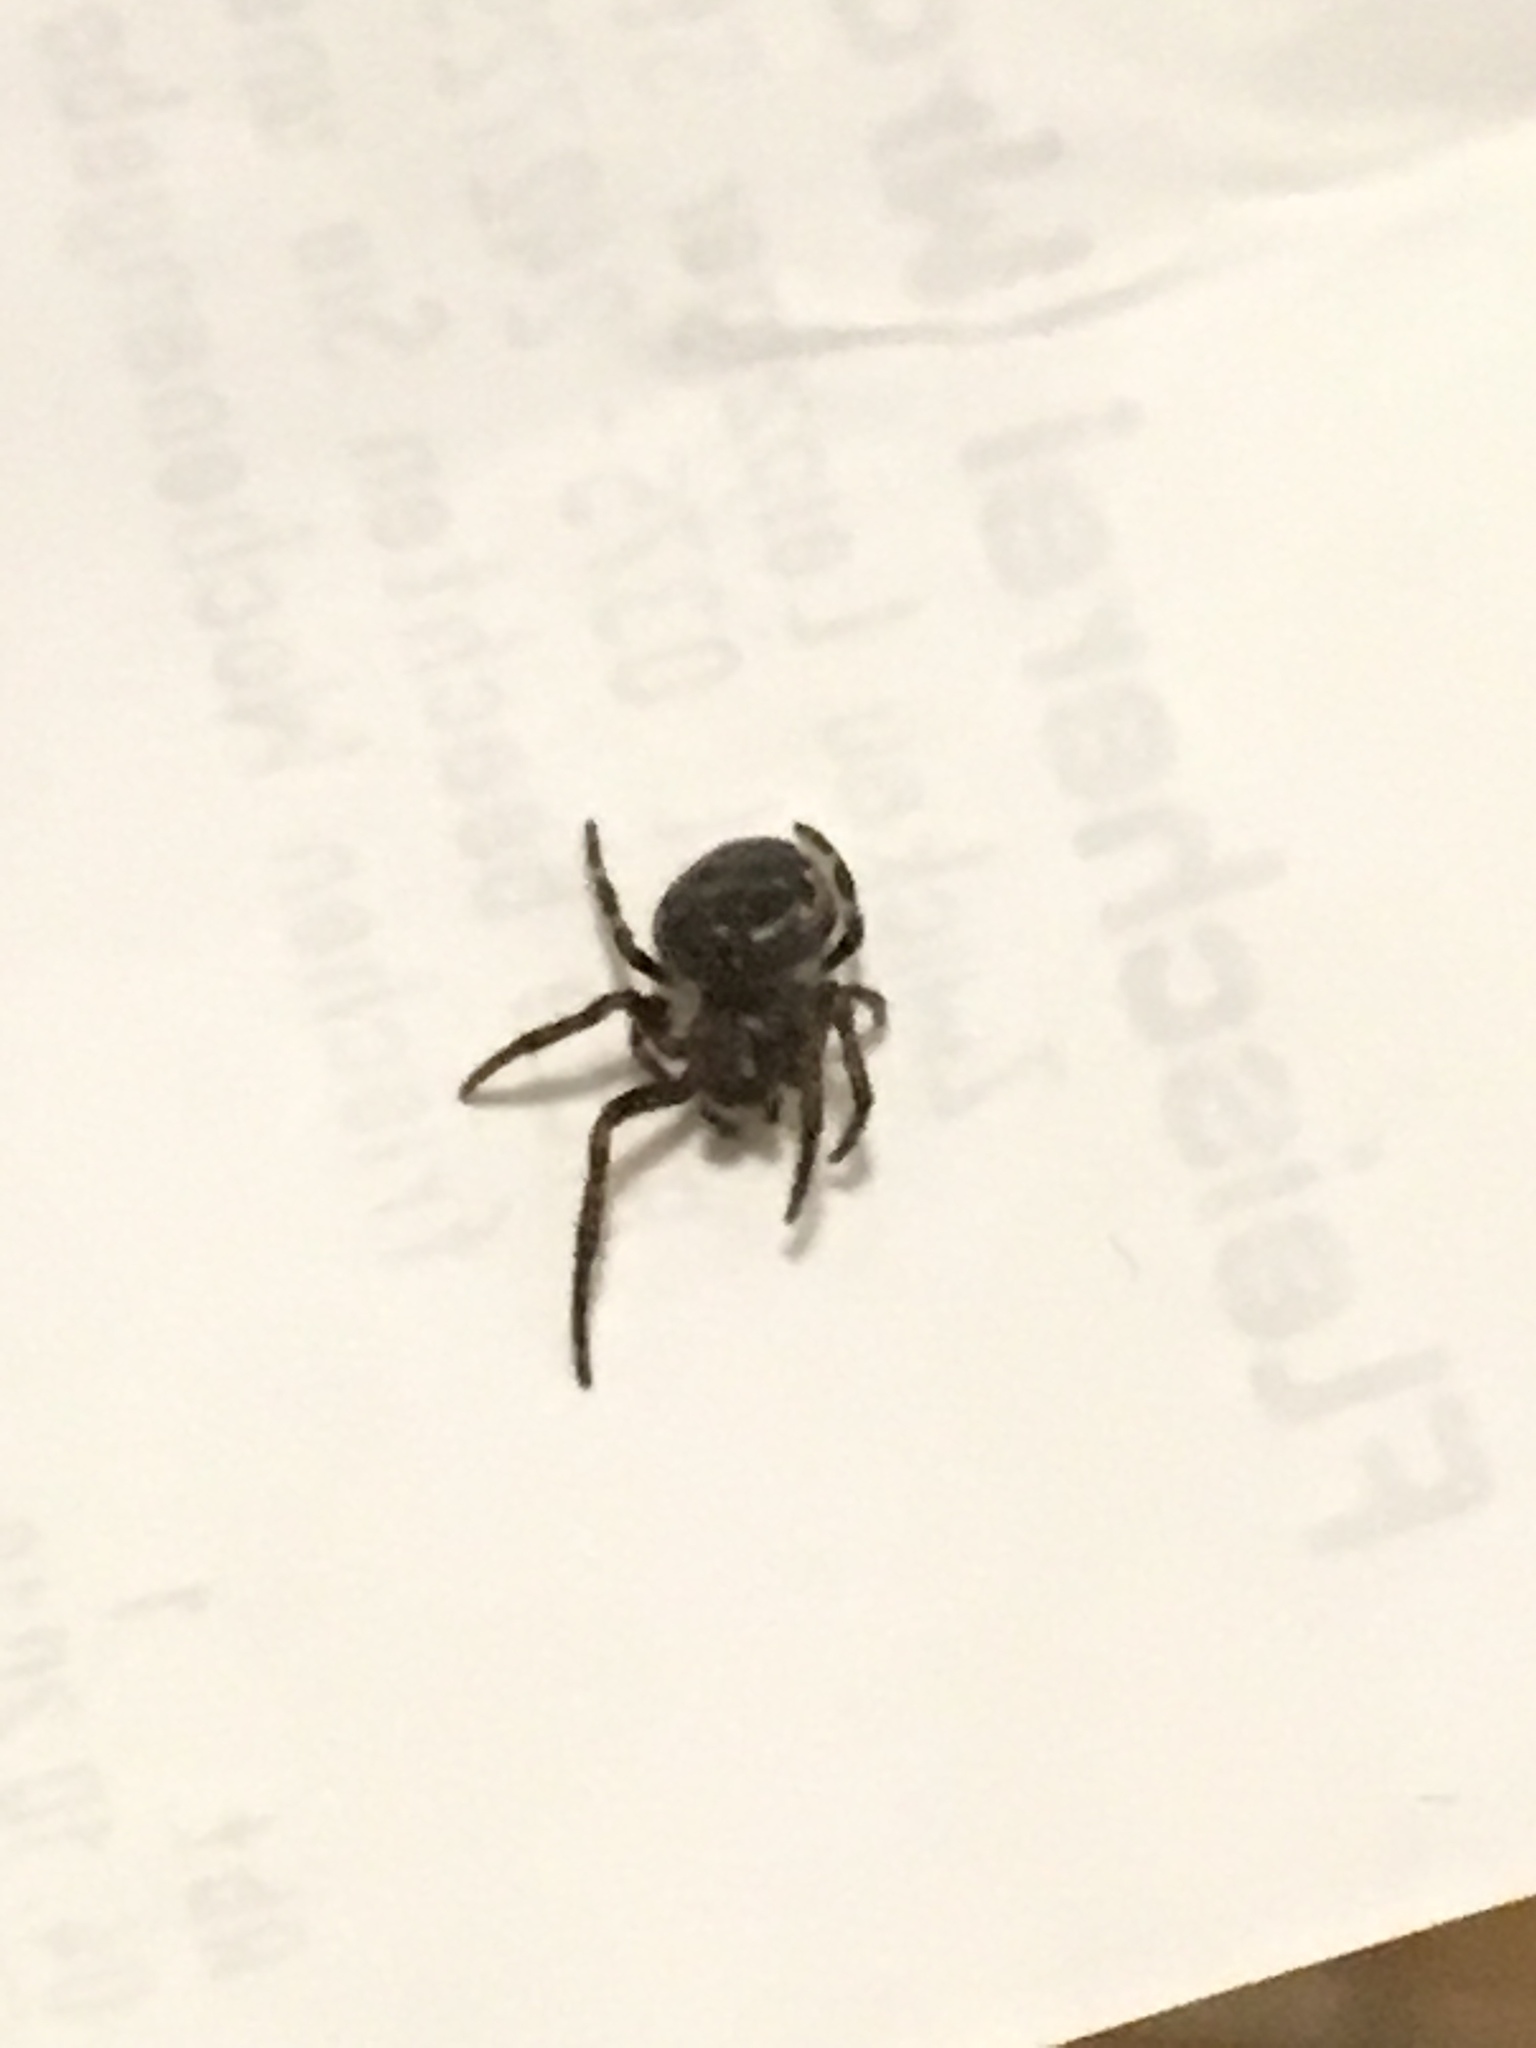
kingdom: Animalia
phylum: Arthropoda
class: Arachnida
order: Araneae
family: Araneidae
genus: Nuctenea
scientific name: Nuctenea umbratica
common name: Toad spider
